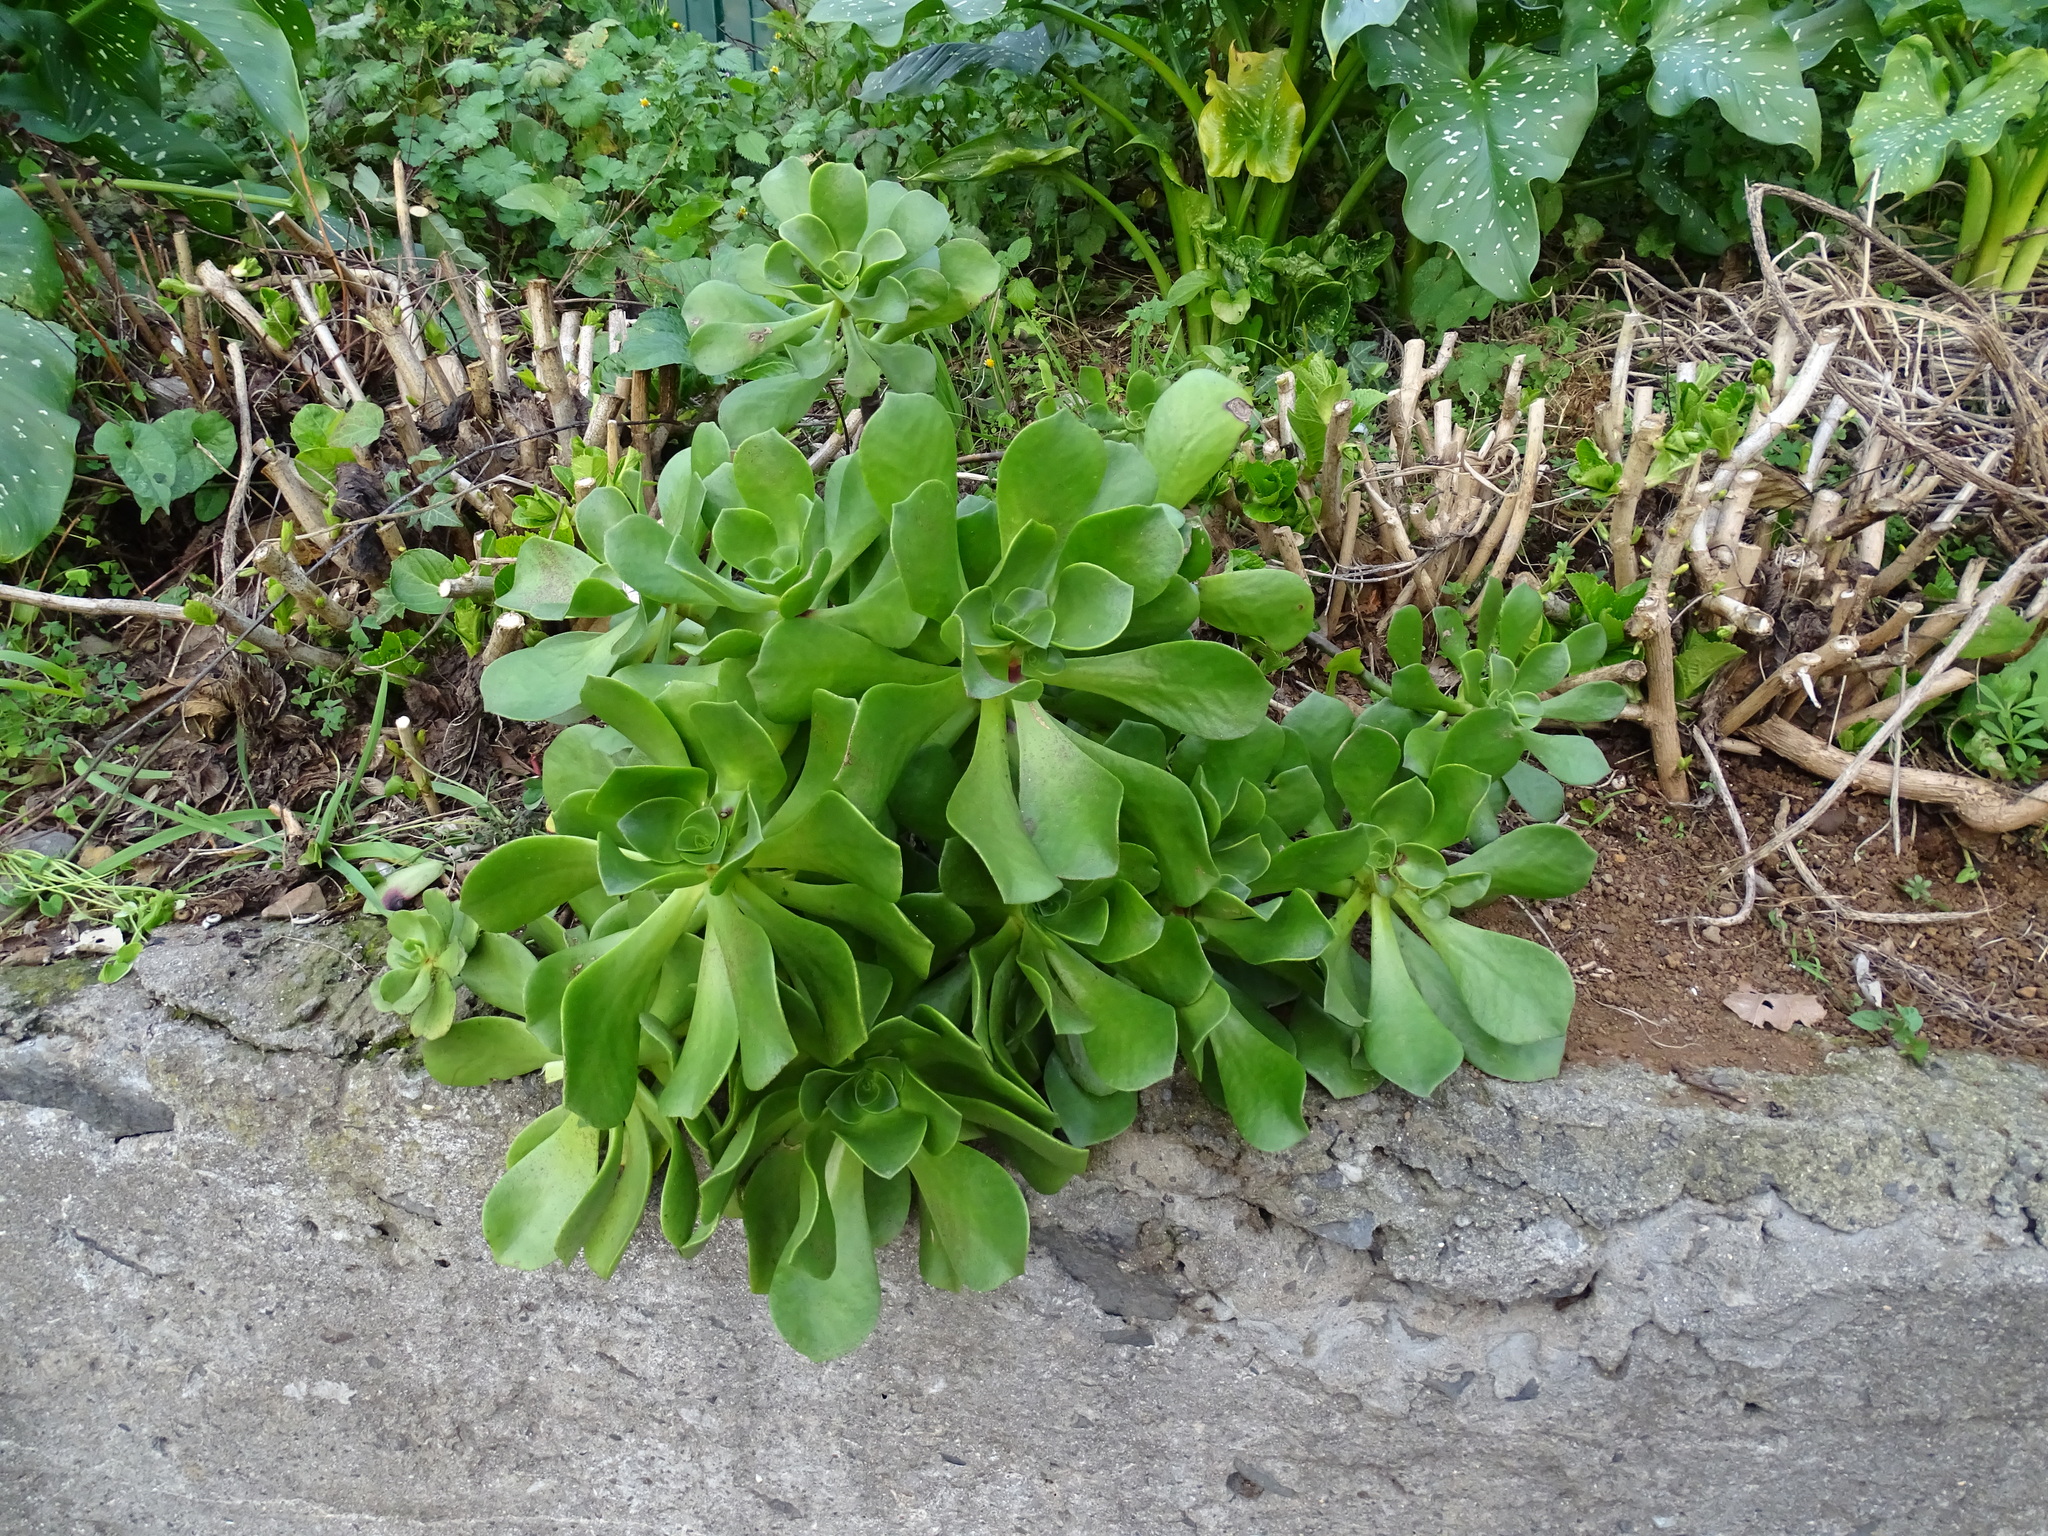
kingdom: Plantae
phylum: Tracheophyta
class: Magnoliopsida
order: Saxifragales
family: Crassulaceae
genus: Aeonium
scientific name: Aeonium glutinosum
